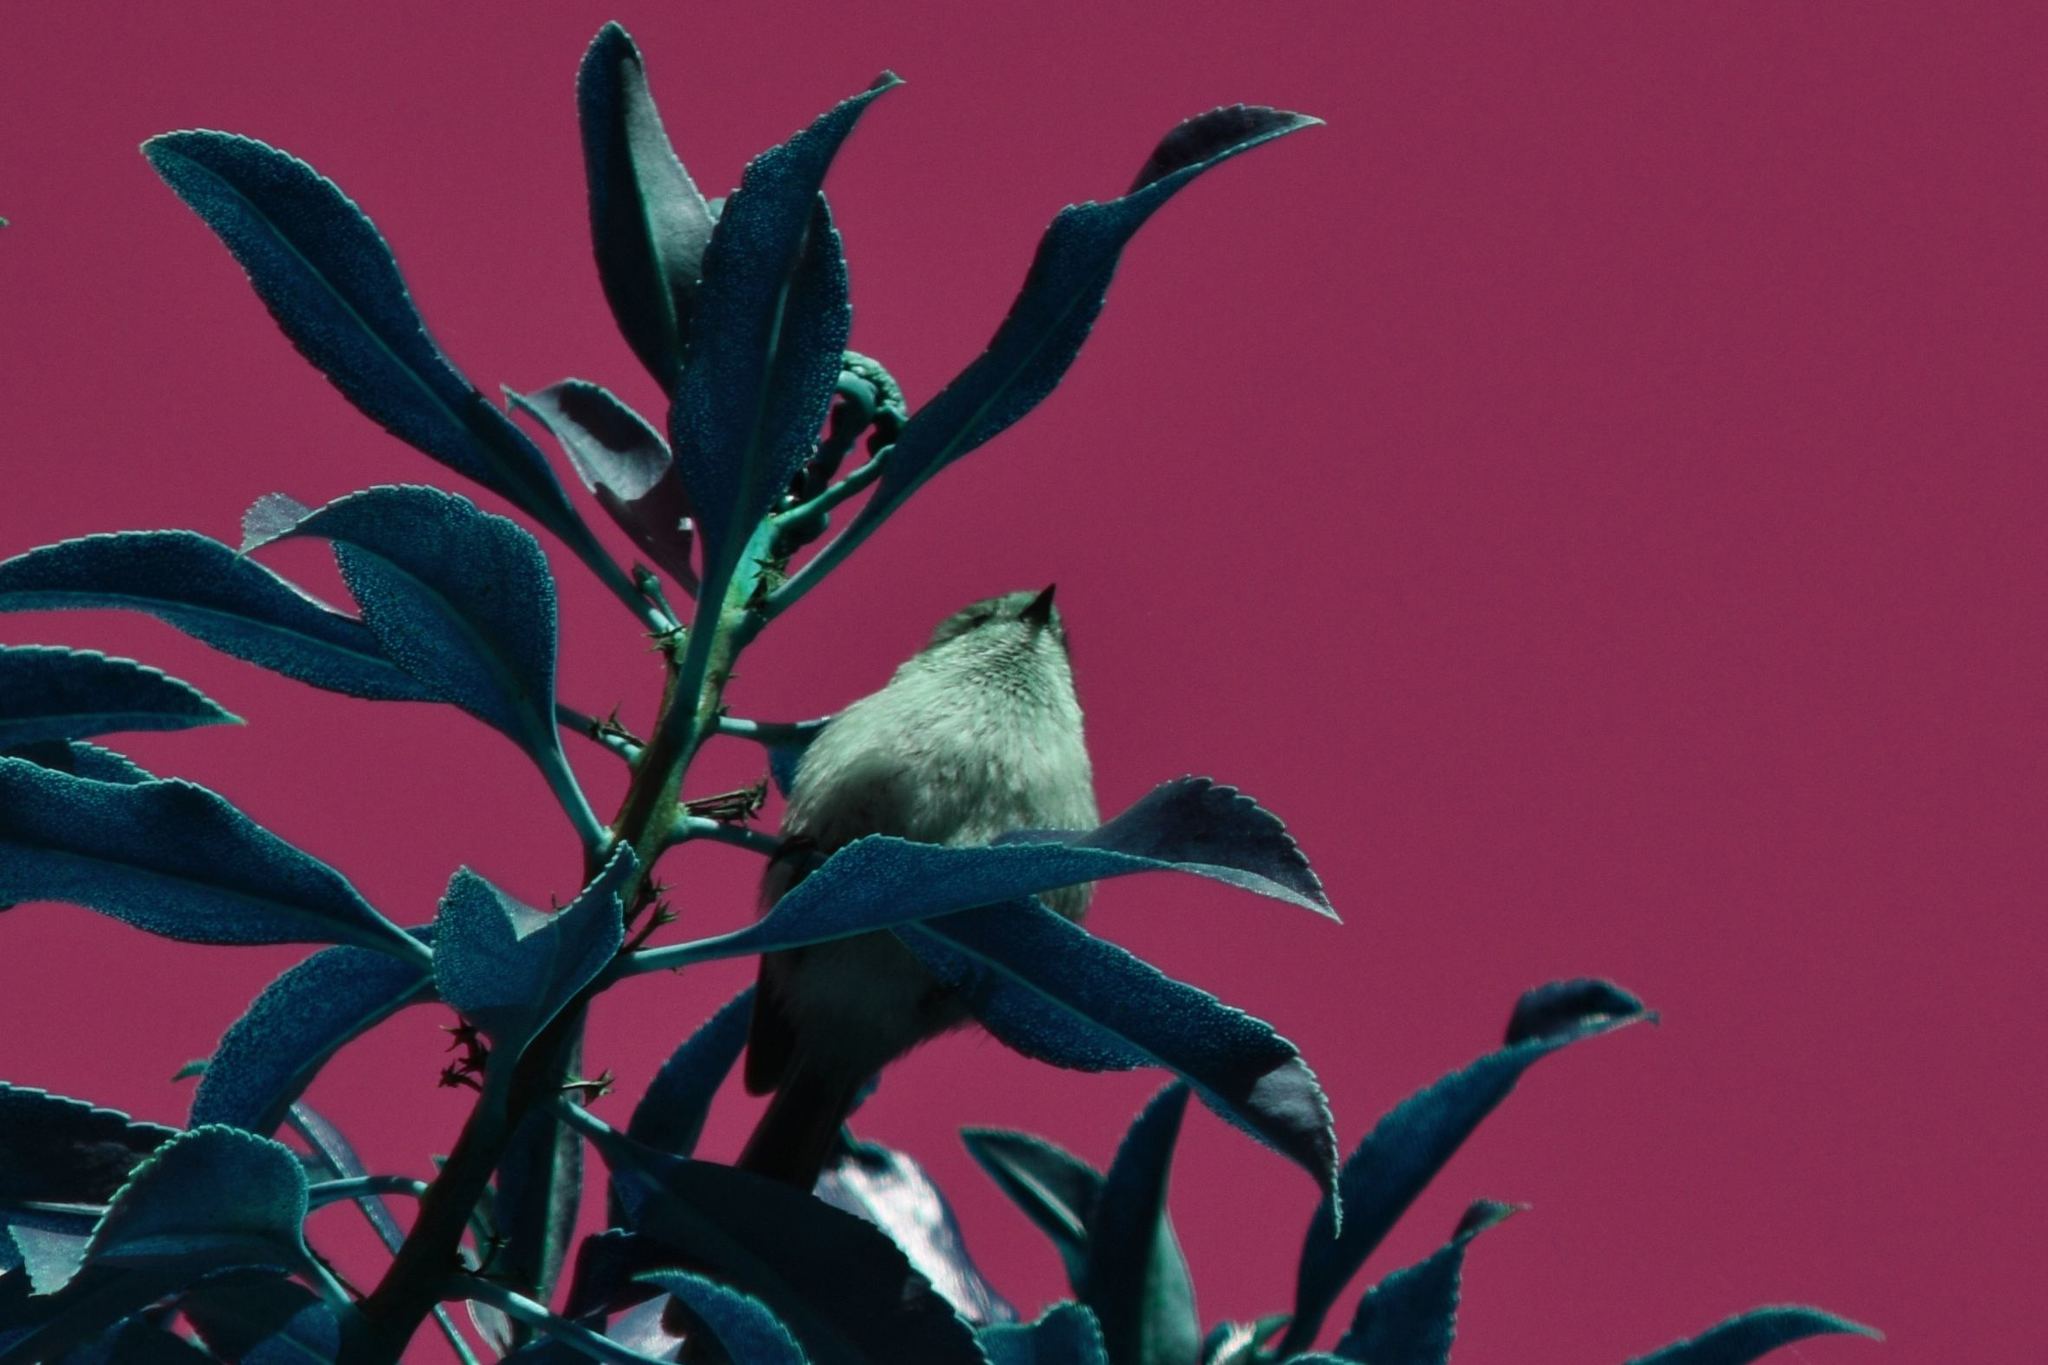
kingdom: Animalia
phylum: Chordata
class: Aves
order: Passeriformes
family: Aegithalidae
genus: Psaltriparus
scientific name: Psaltriparus minimus
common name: American bushtit
